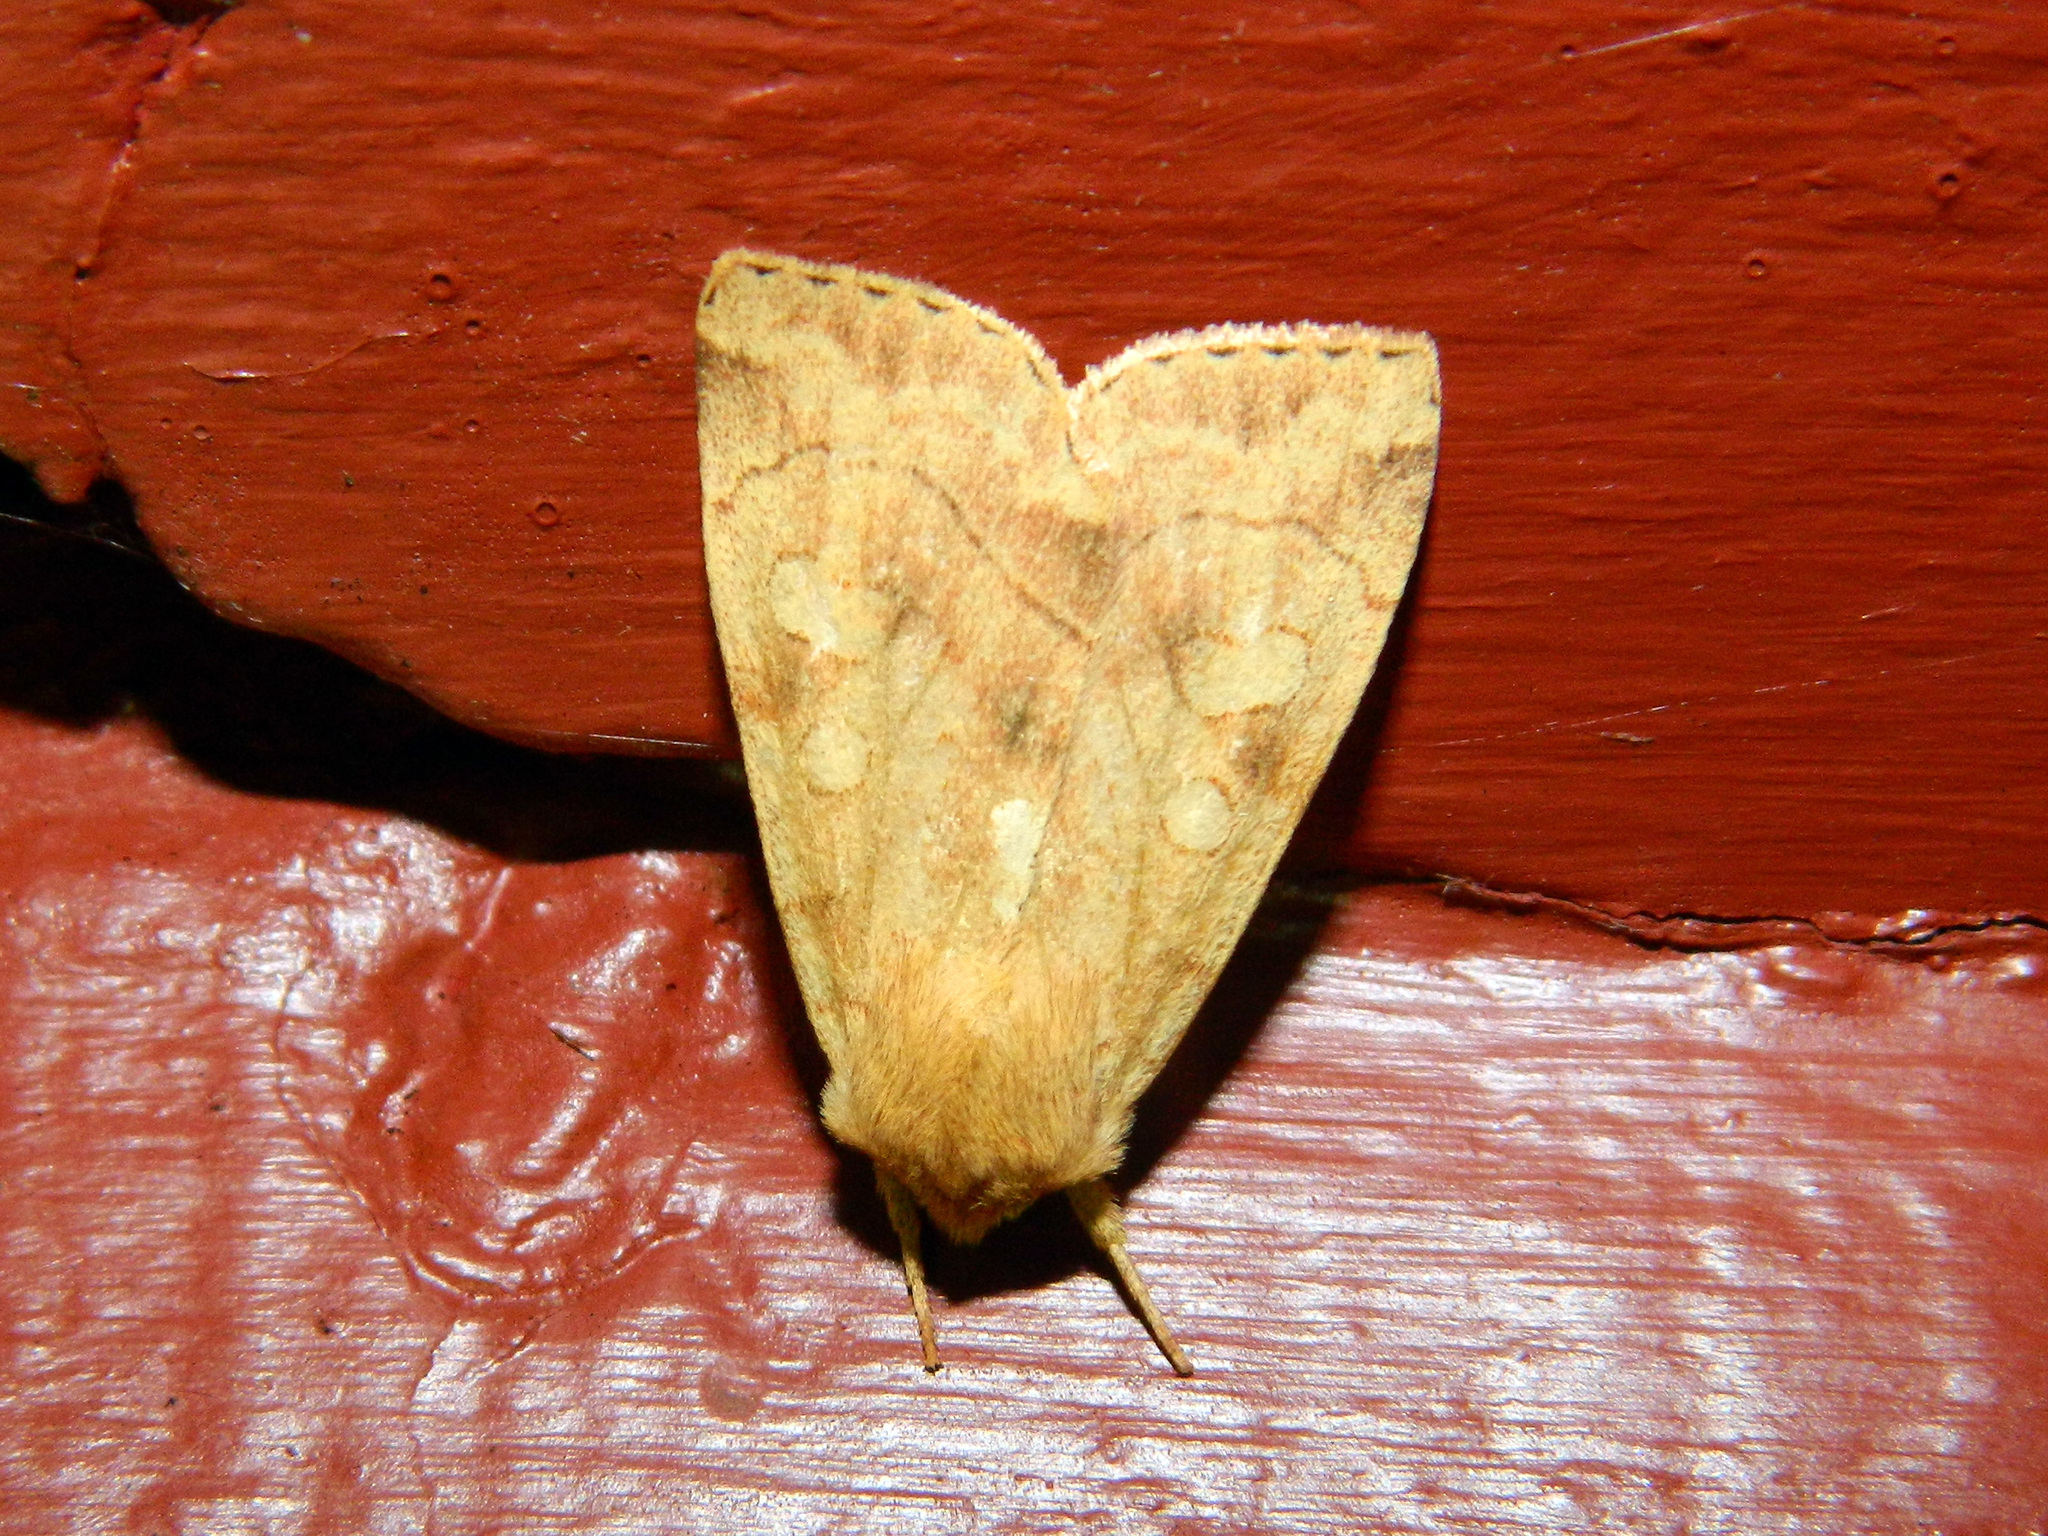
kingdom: Animalia
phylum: Arthropoda
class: Insecta
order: Lepidoptera
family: Noctuidae
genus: Enargia
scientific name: Enargia decolor
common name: Aspen twoleaf tier moth
